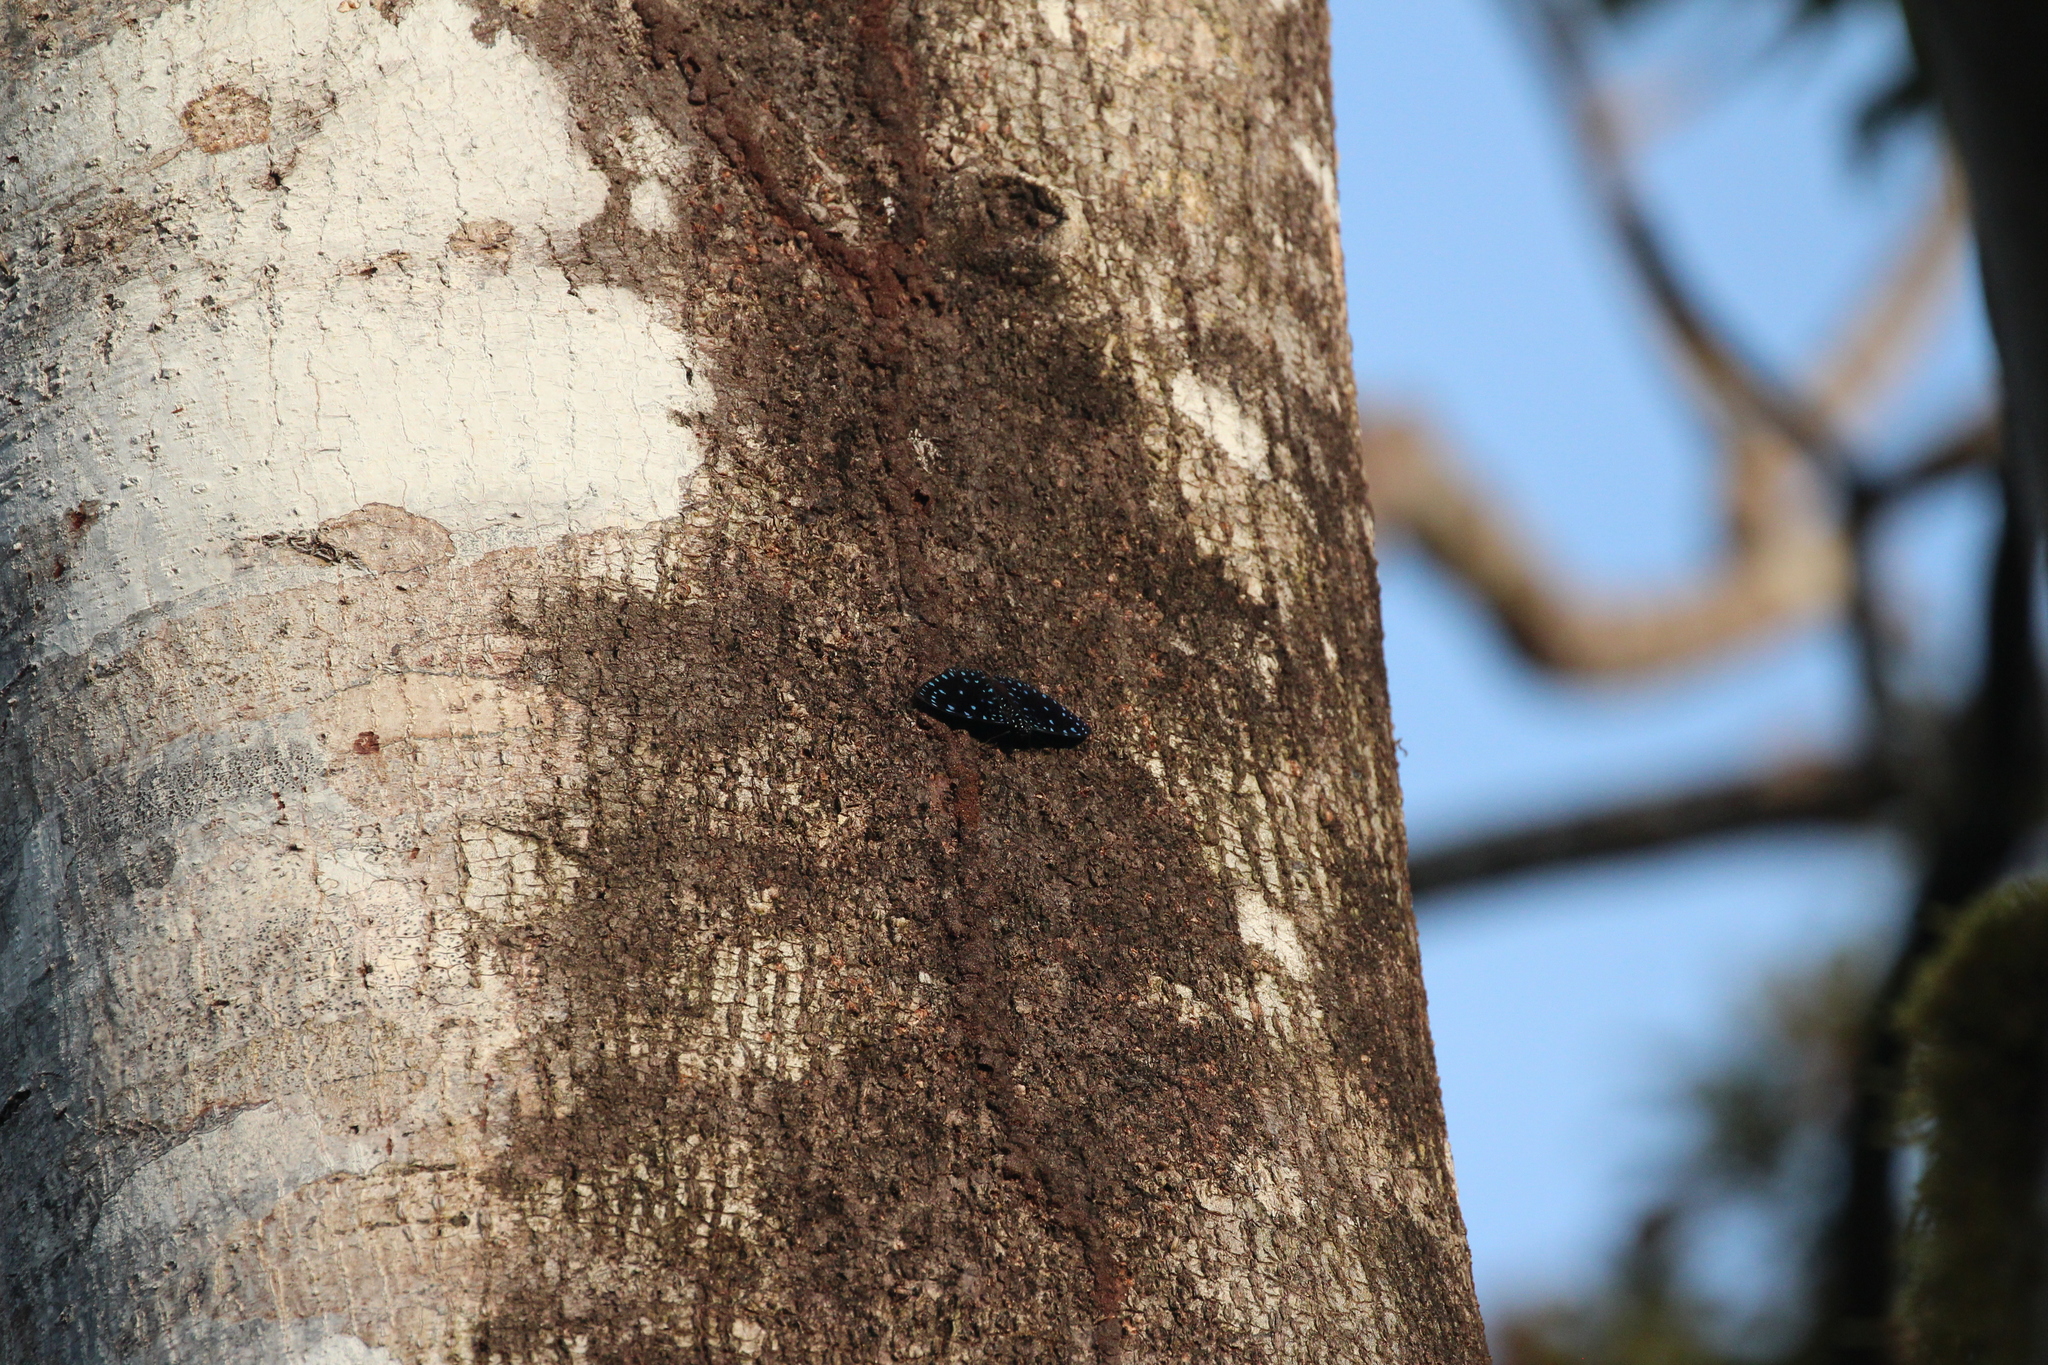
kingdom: Animalia
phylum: Arthropoda
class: Insecta
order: Lepidoptera
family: Nymphalidae
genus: Hamadryas
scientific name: Hamadryas laodamia
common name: Starry night cracker
